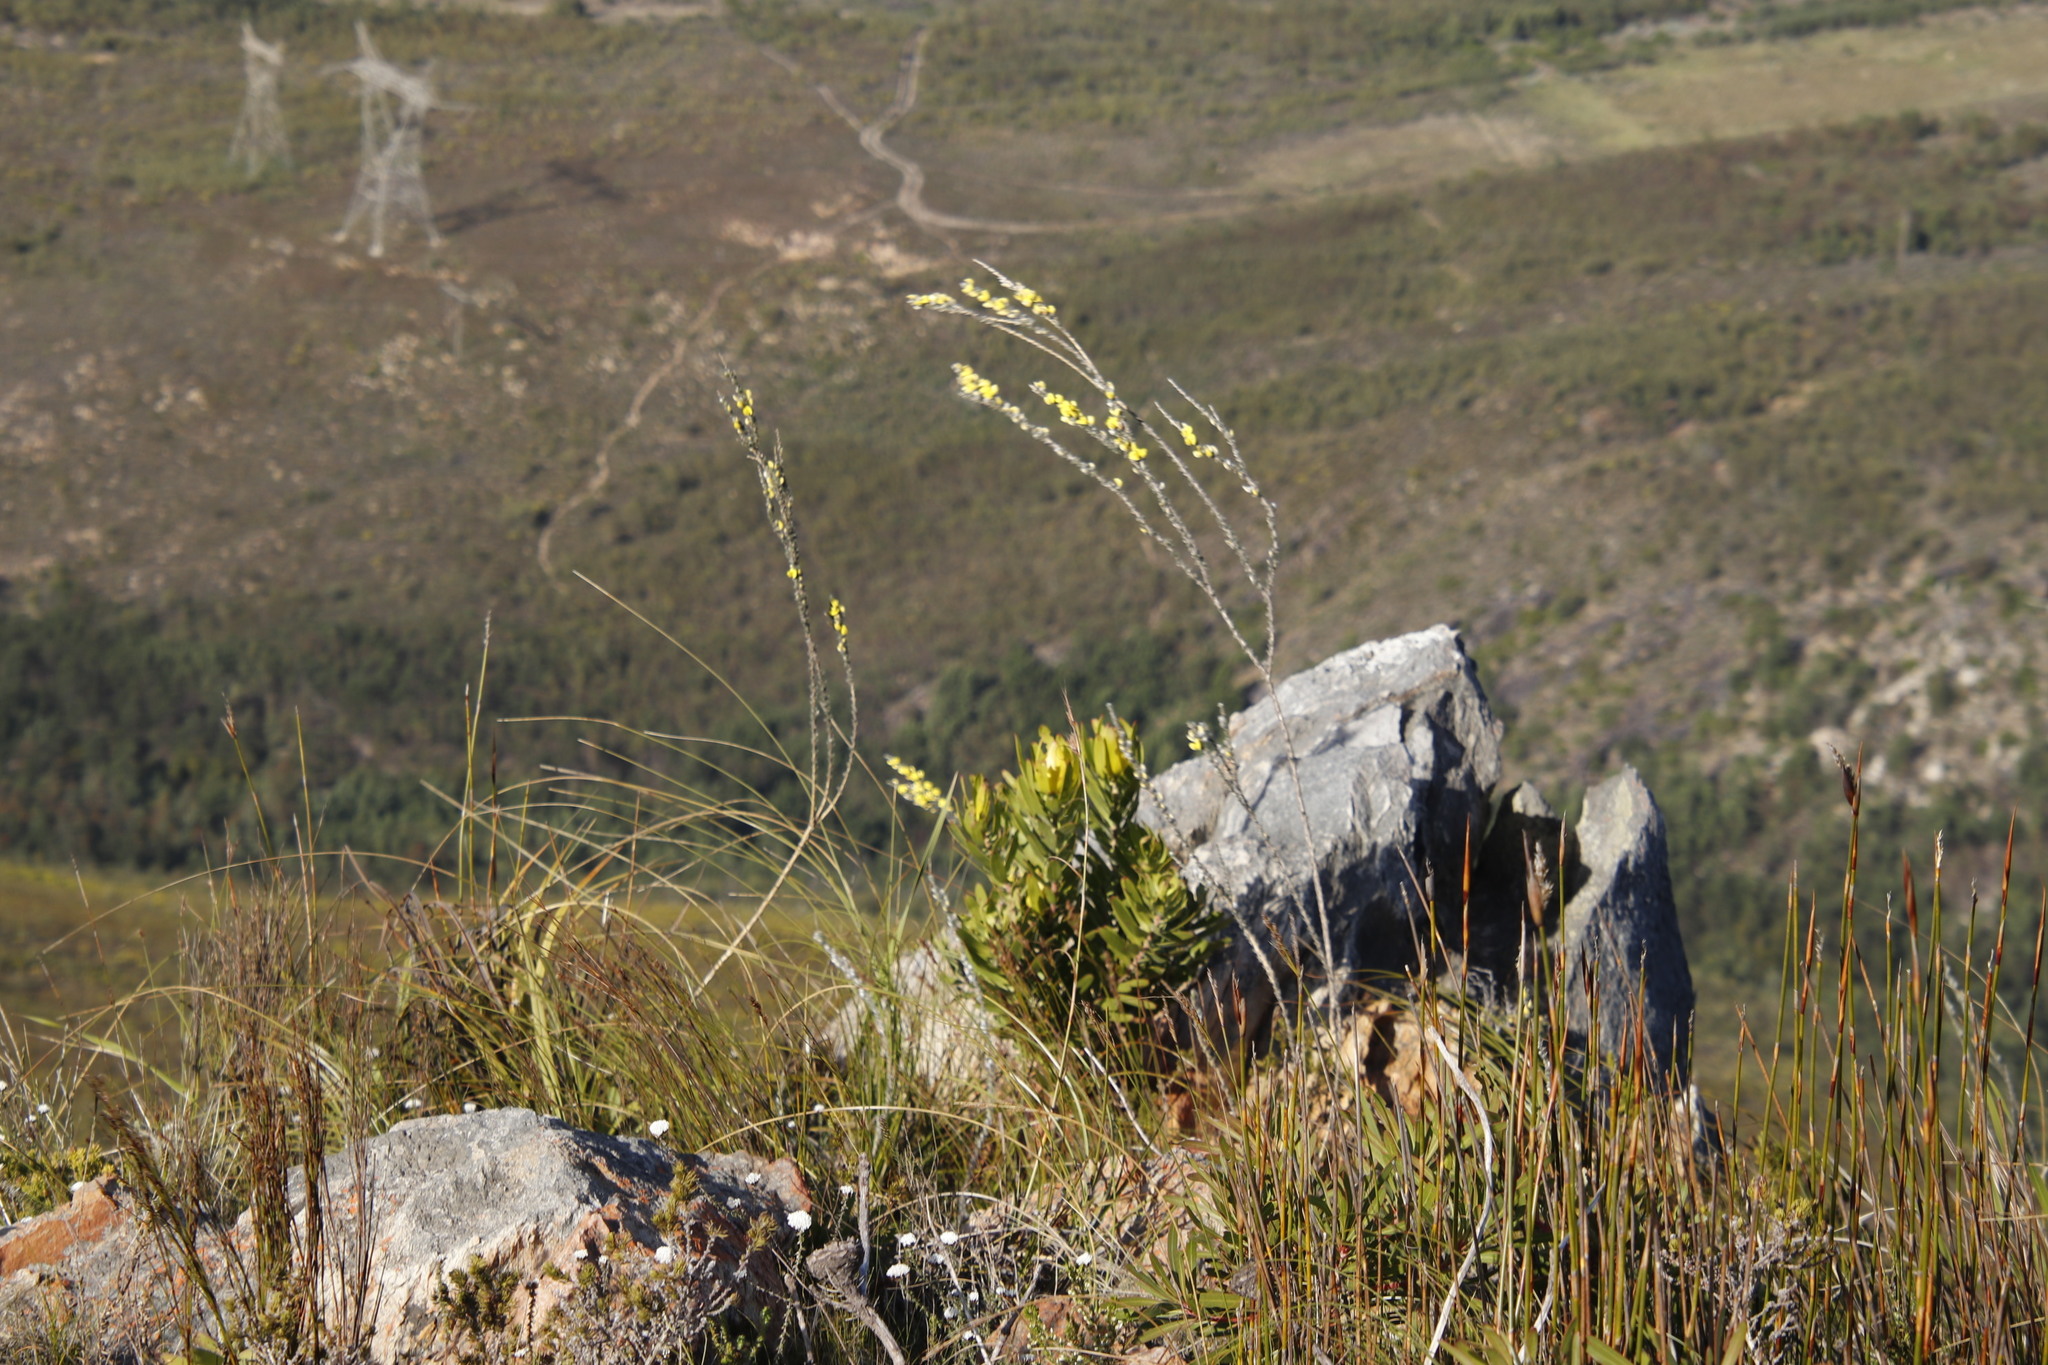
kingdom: Plantae
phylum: Tracheophyta
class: Magnoliopsida
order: Fabales
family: Fabaceae
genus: Aspalathus
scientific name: Aspalathus caledonensis
